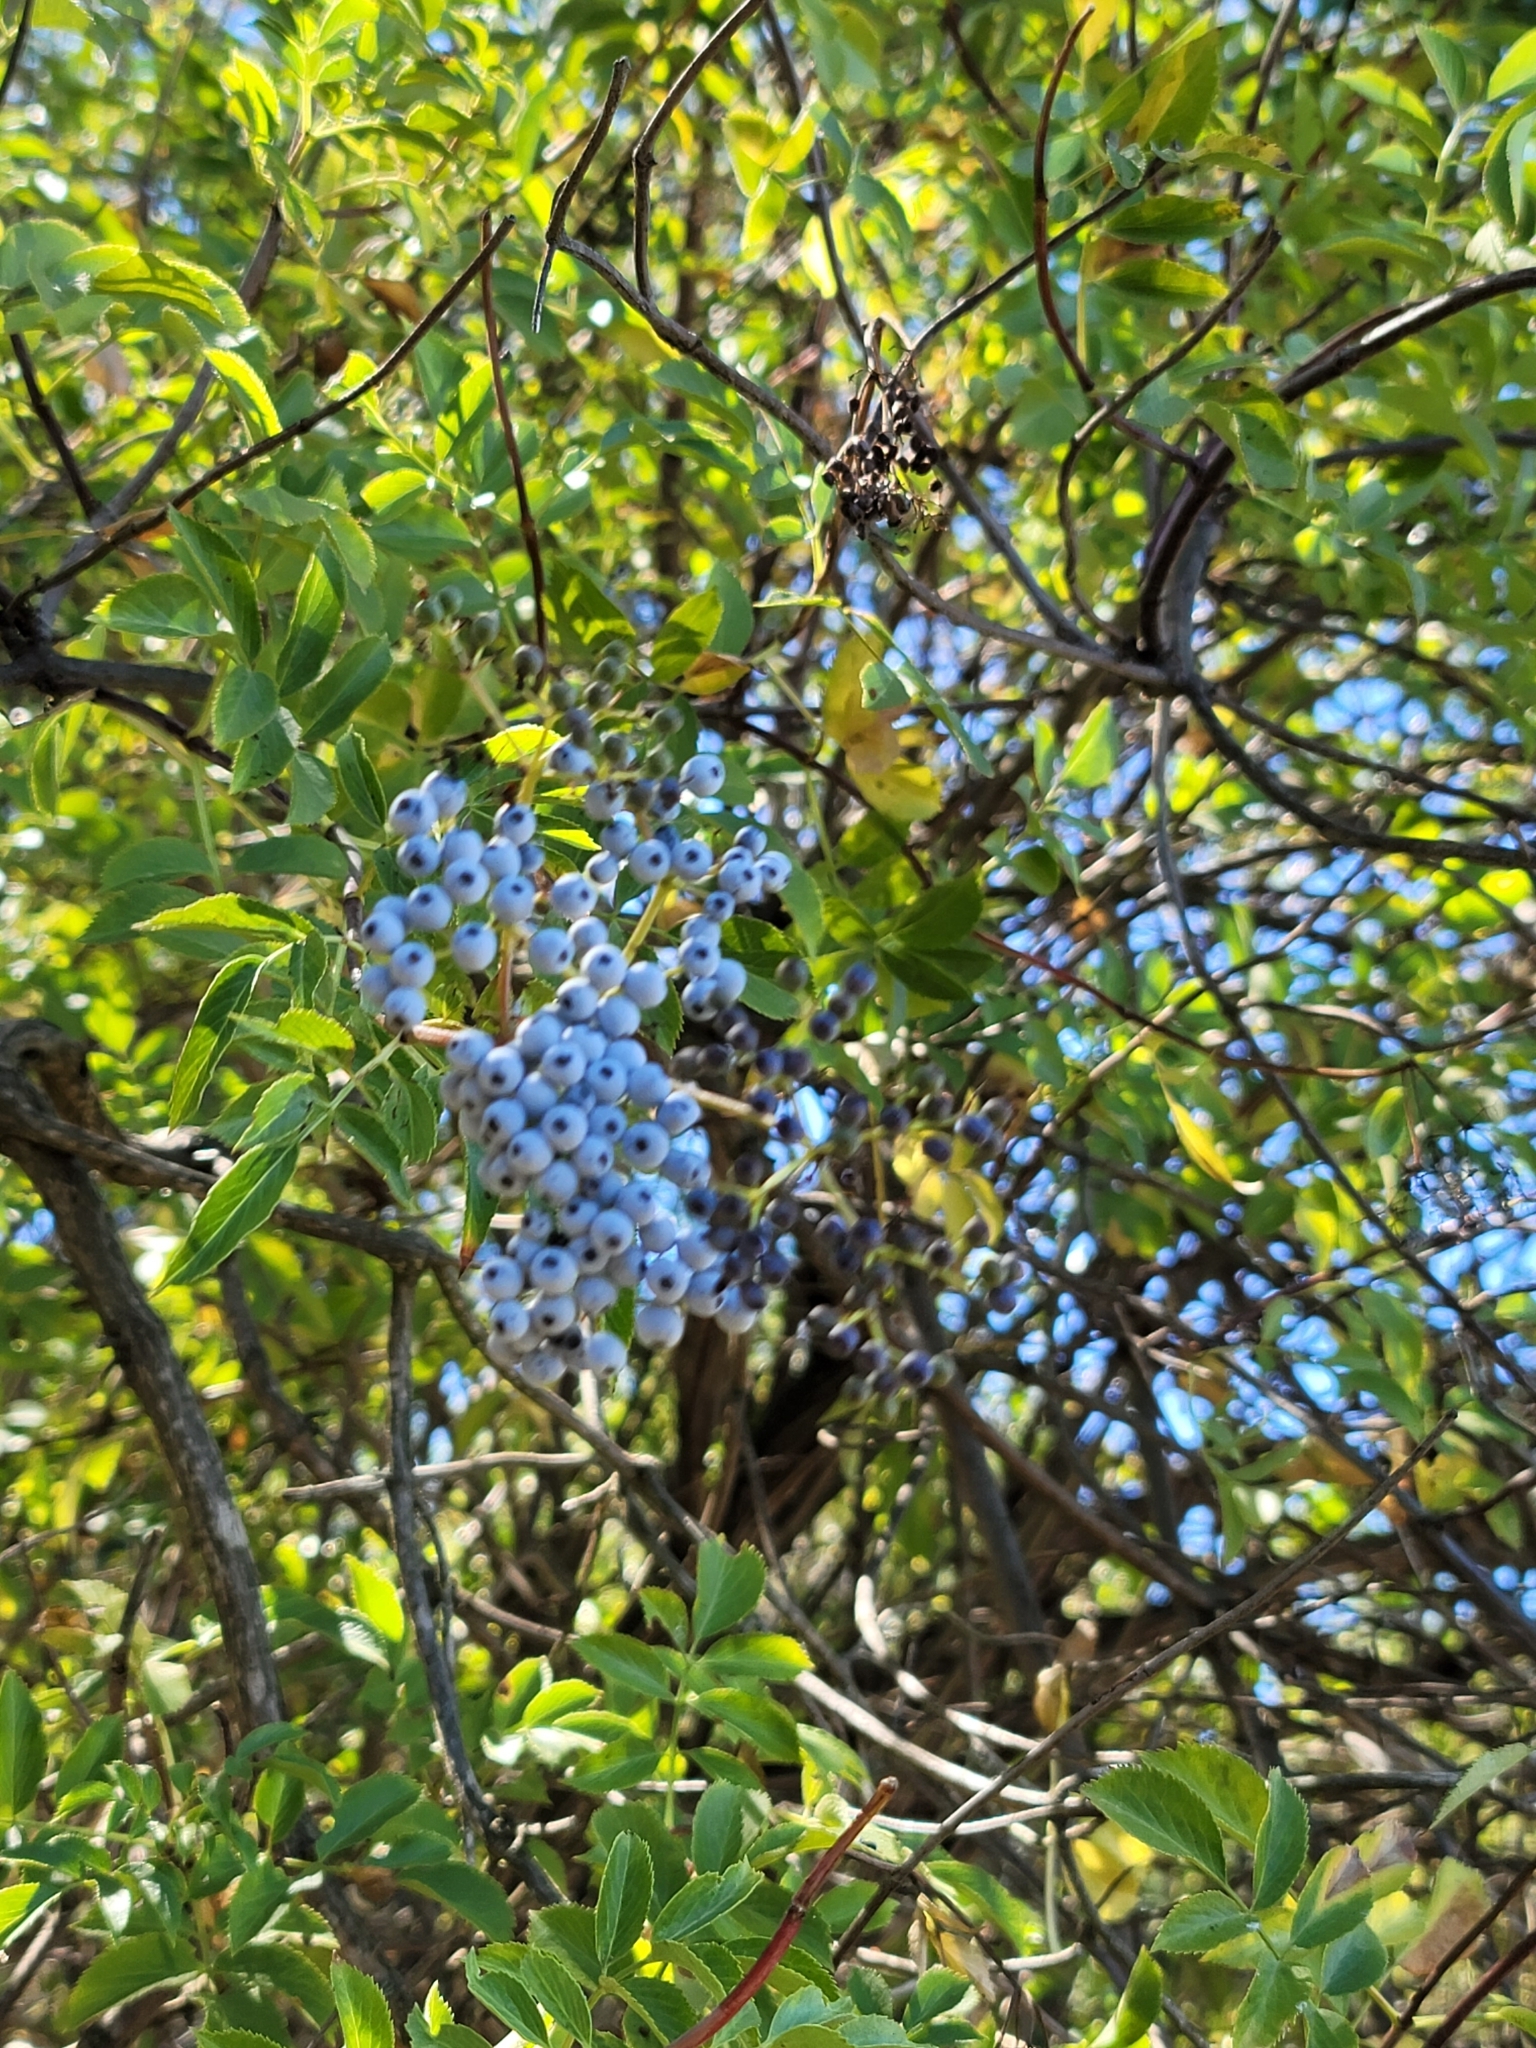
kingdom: Plantae
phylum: Tracheophyta
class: Magnoliopsida
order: Dipsacales
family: Viburnaceae
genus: Sambucus
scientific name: Sambucus cerulea
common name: Blue elder
